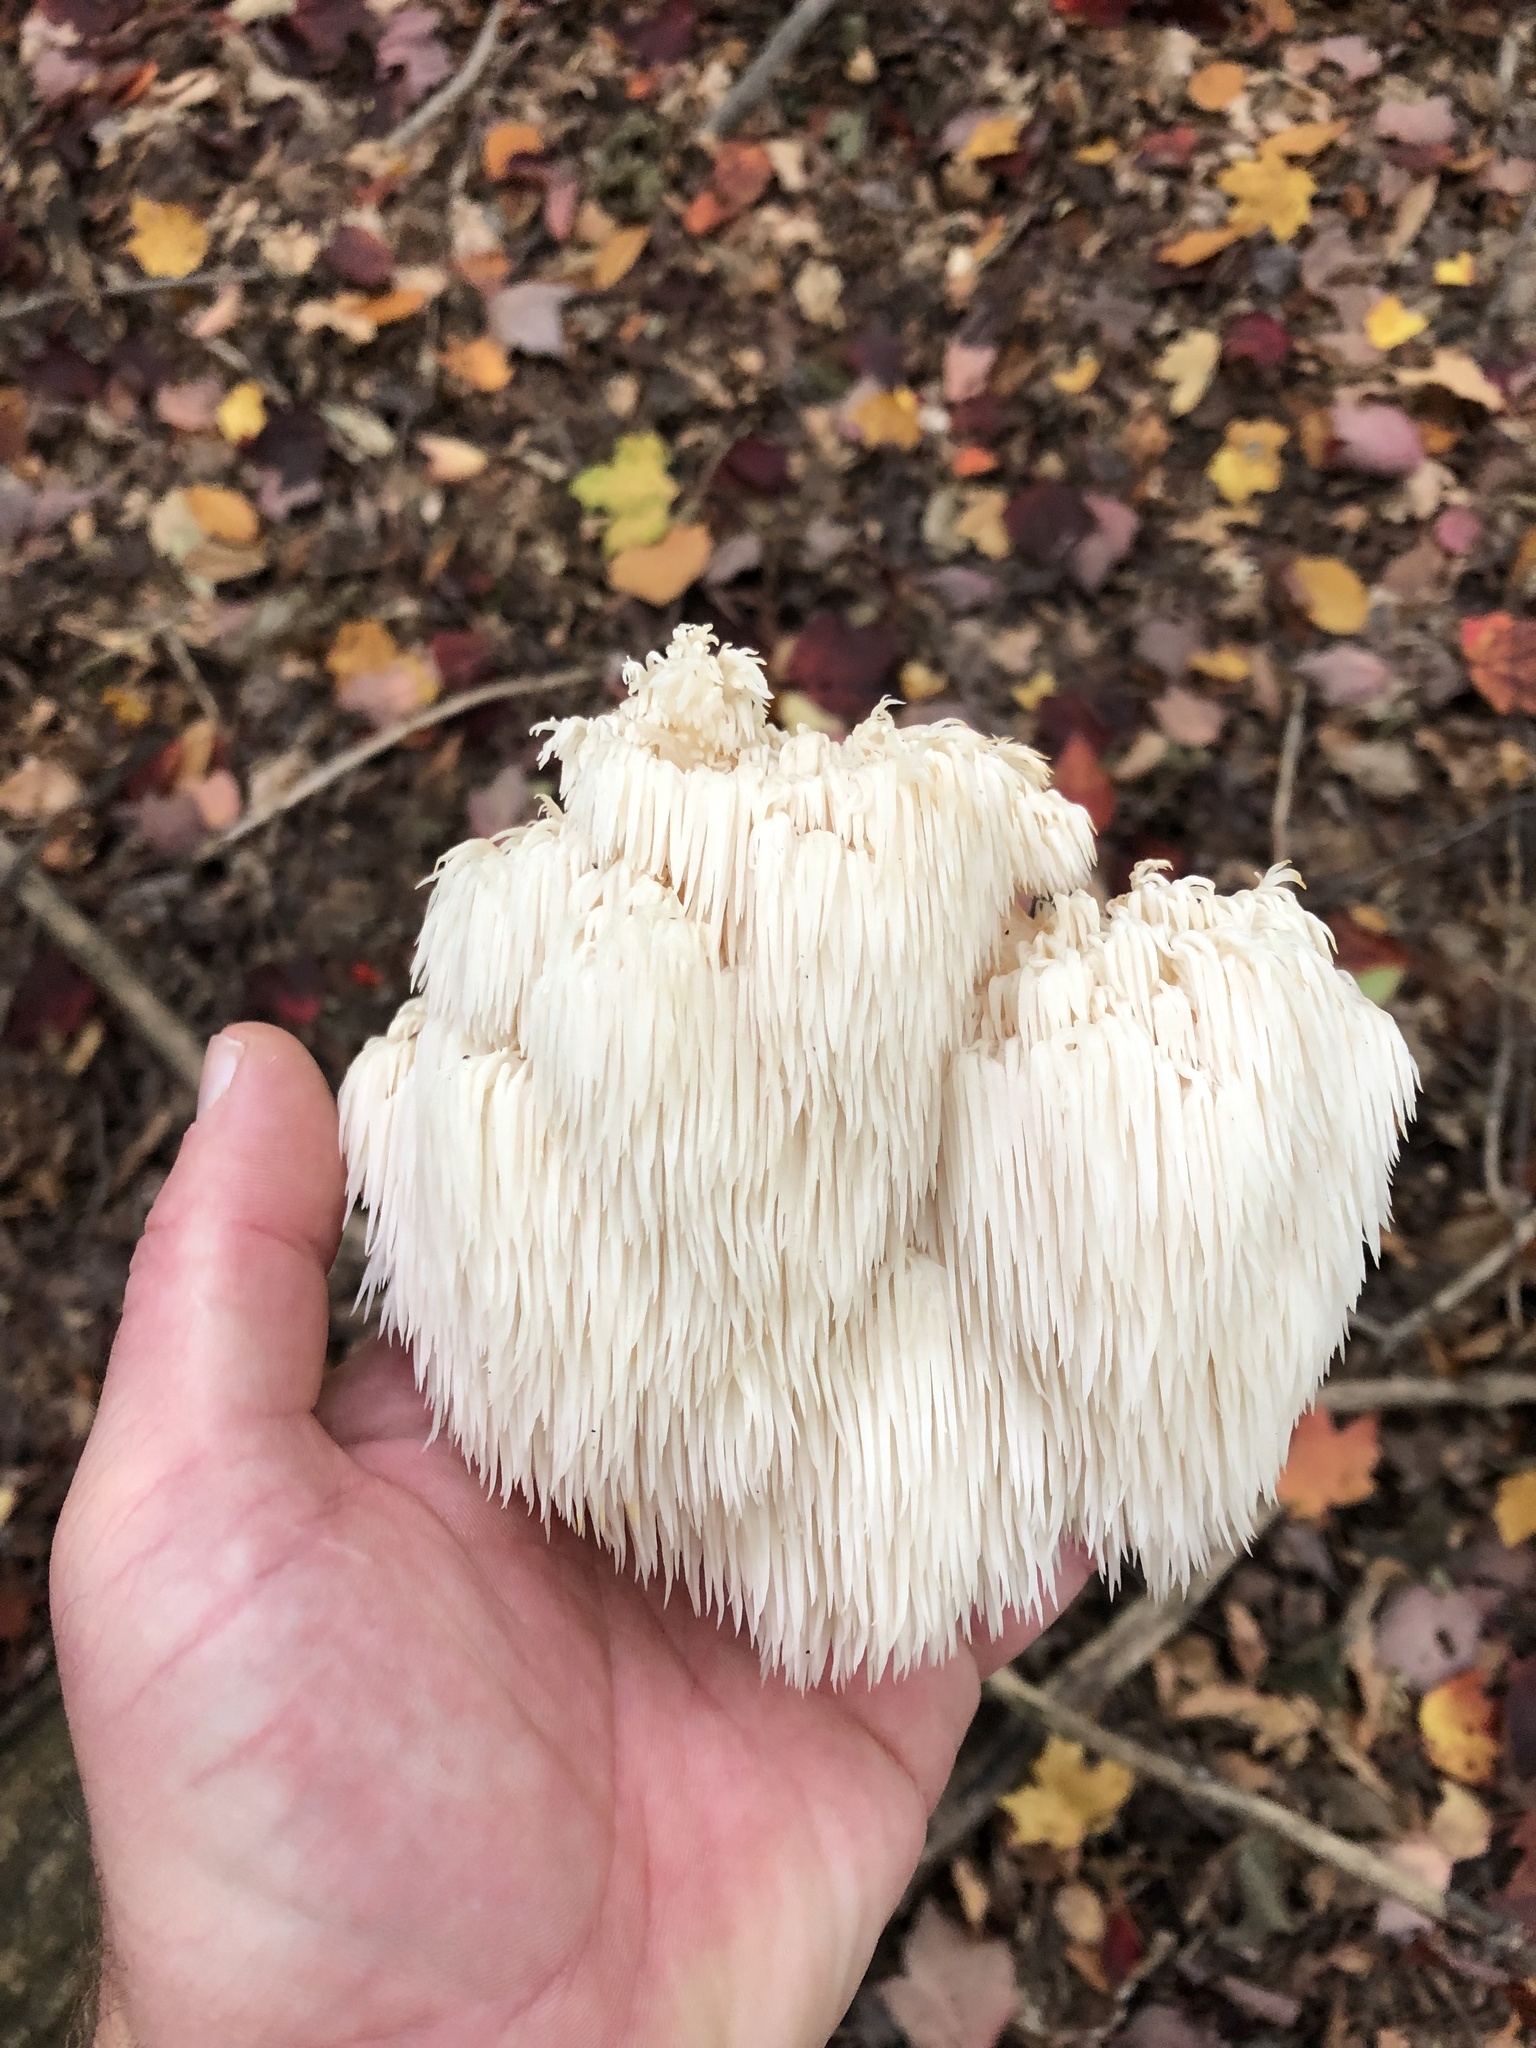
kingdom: Fungi
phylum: Basidiomycota
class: Agaricomycetes
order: Russulales
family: Hericiaceae
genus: Hericium
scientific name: Hericium americanum
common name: Bear's head tooth
